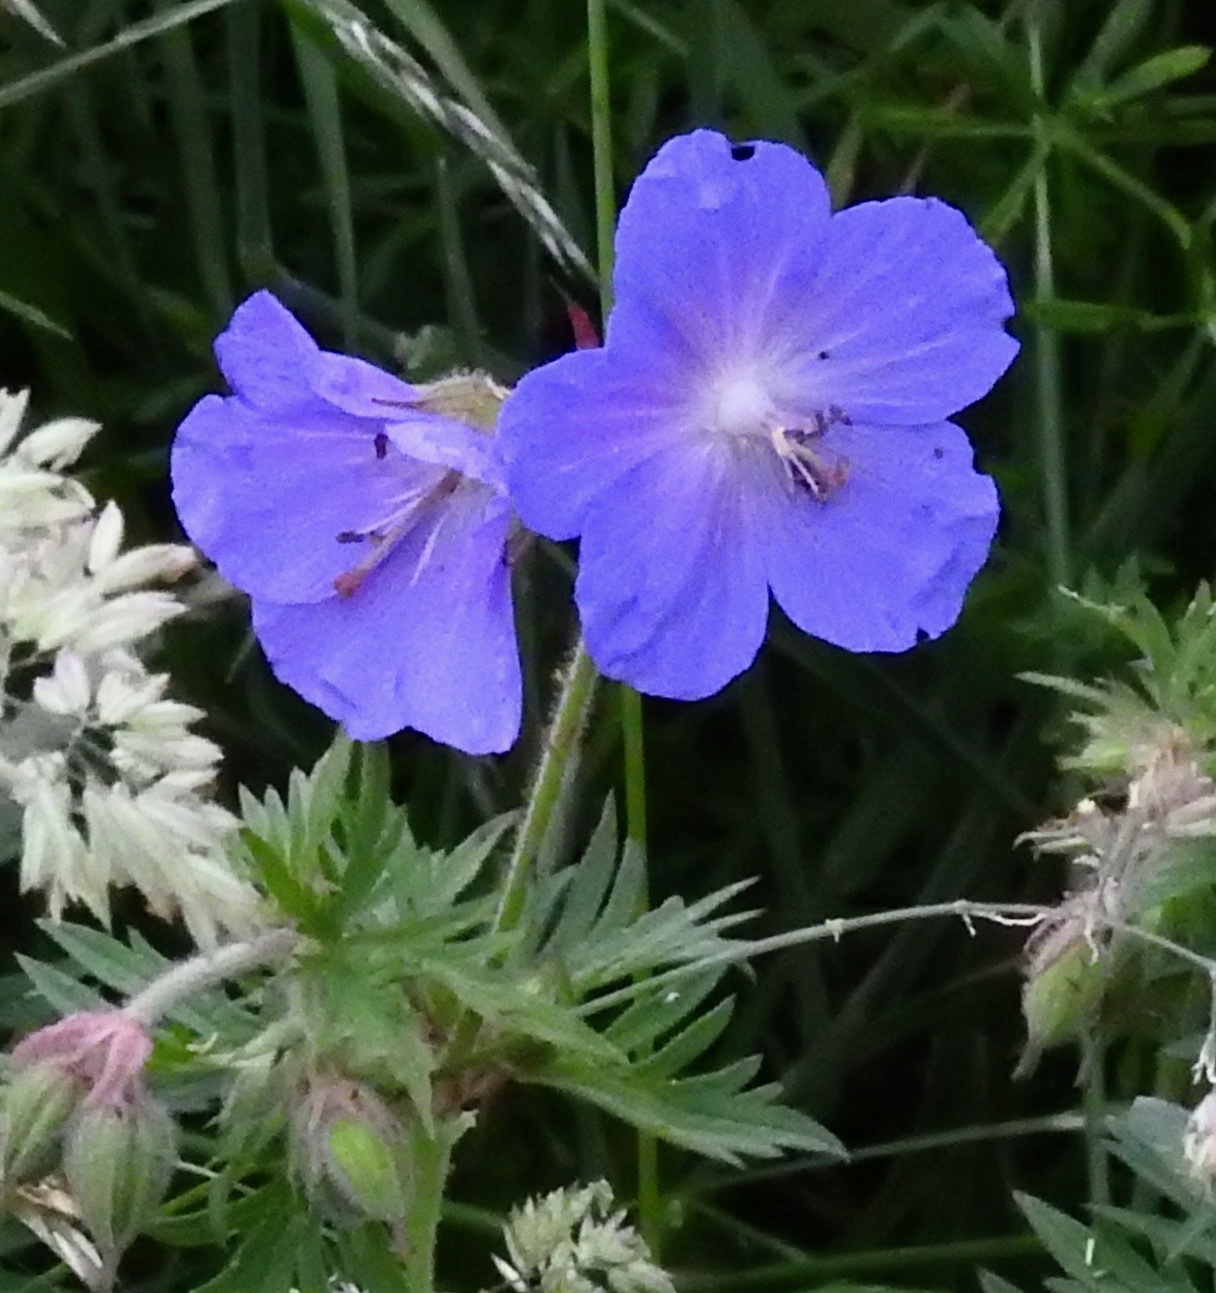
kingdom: Plantae
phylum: Tracheophyta
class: Magnoliopsida
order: Geraniales
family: Geraniaceae
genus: Geranium
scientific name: Geranium pratense
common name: Meadow crane's-bill
